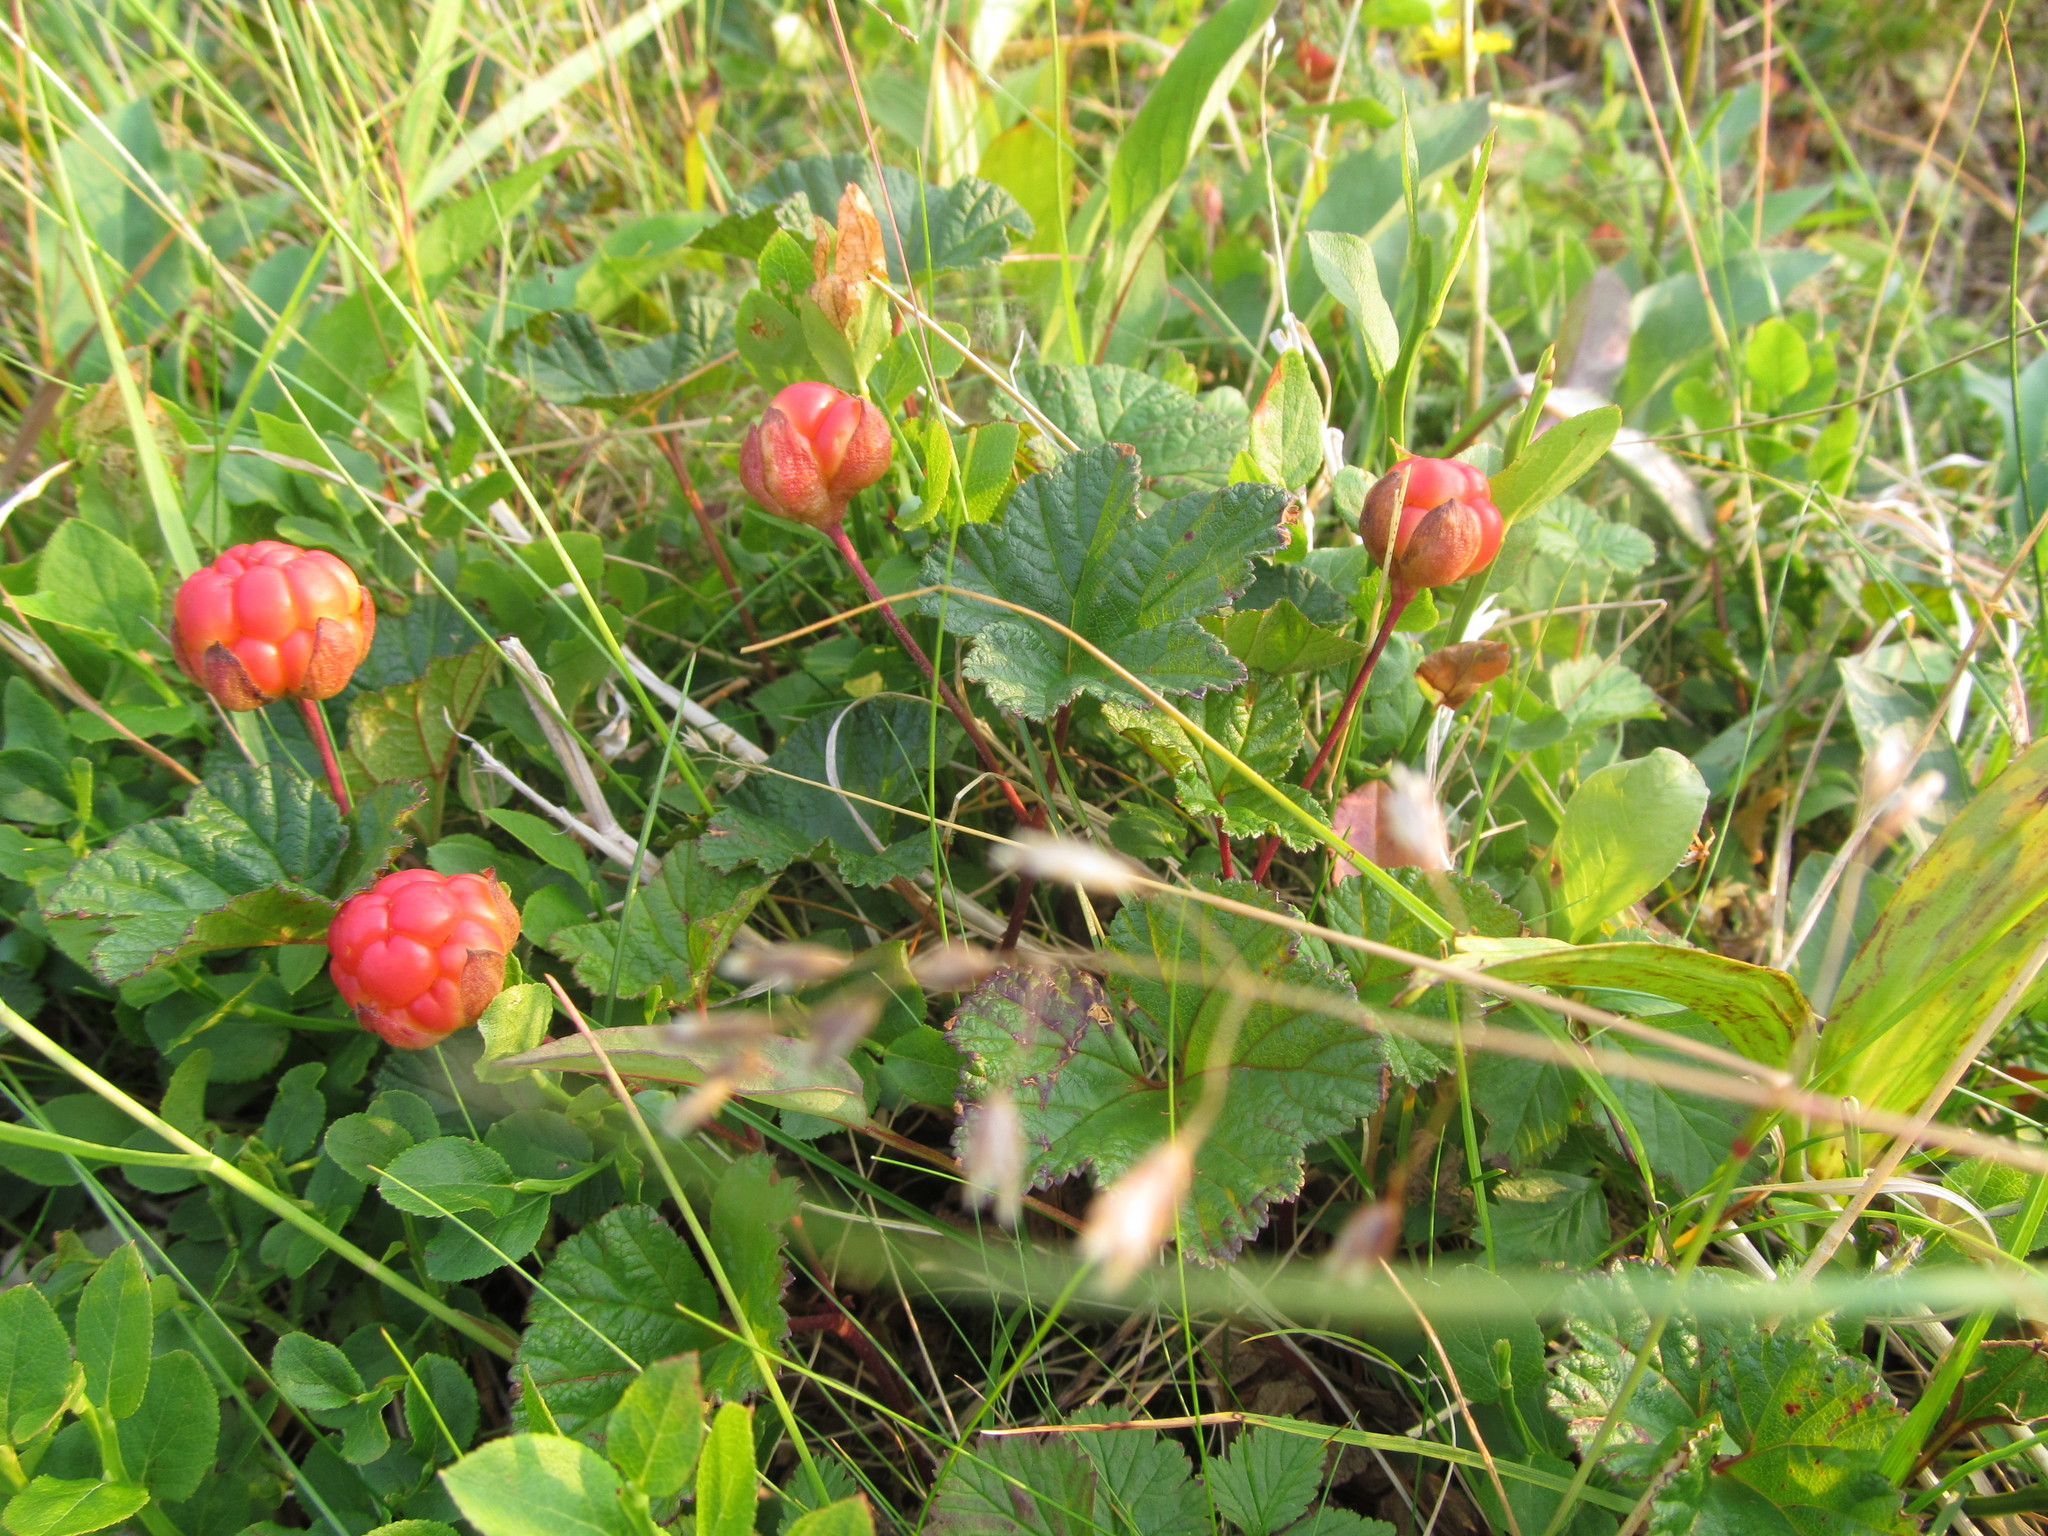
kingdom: Plantae
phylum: Tracheophyta
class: Magnoliopsida
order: Rosales
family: Rosaceae
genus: Rubus
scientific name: Rubus chamaemorus
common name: Cloudberry
